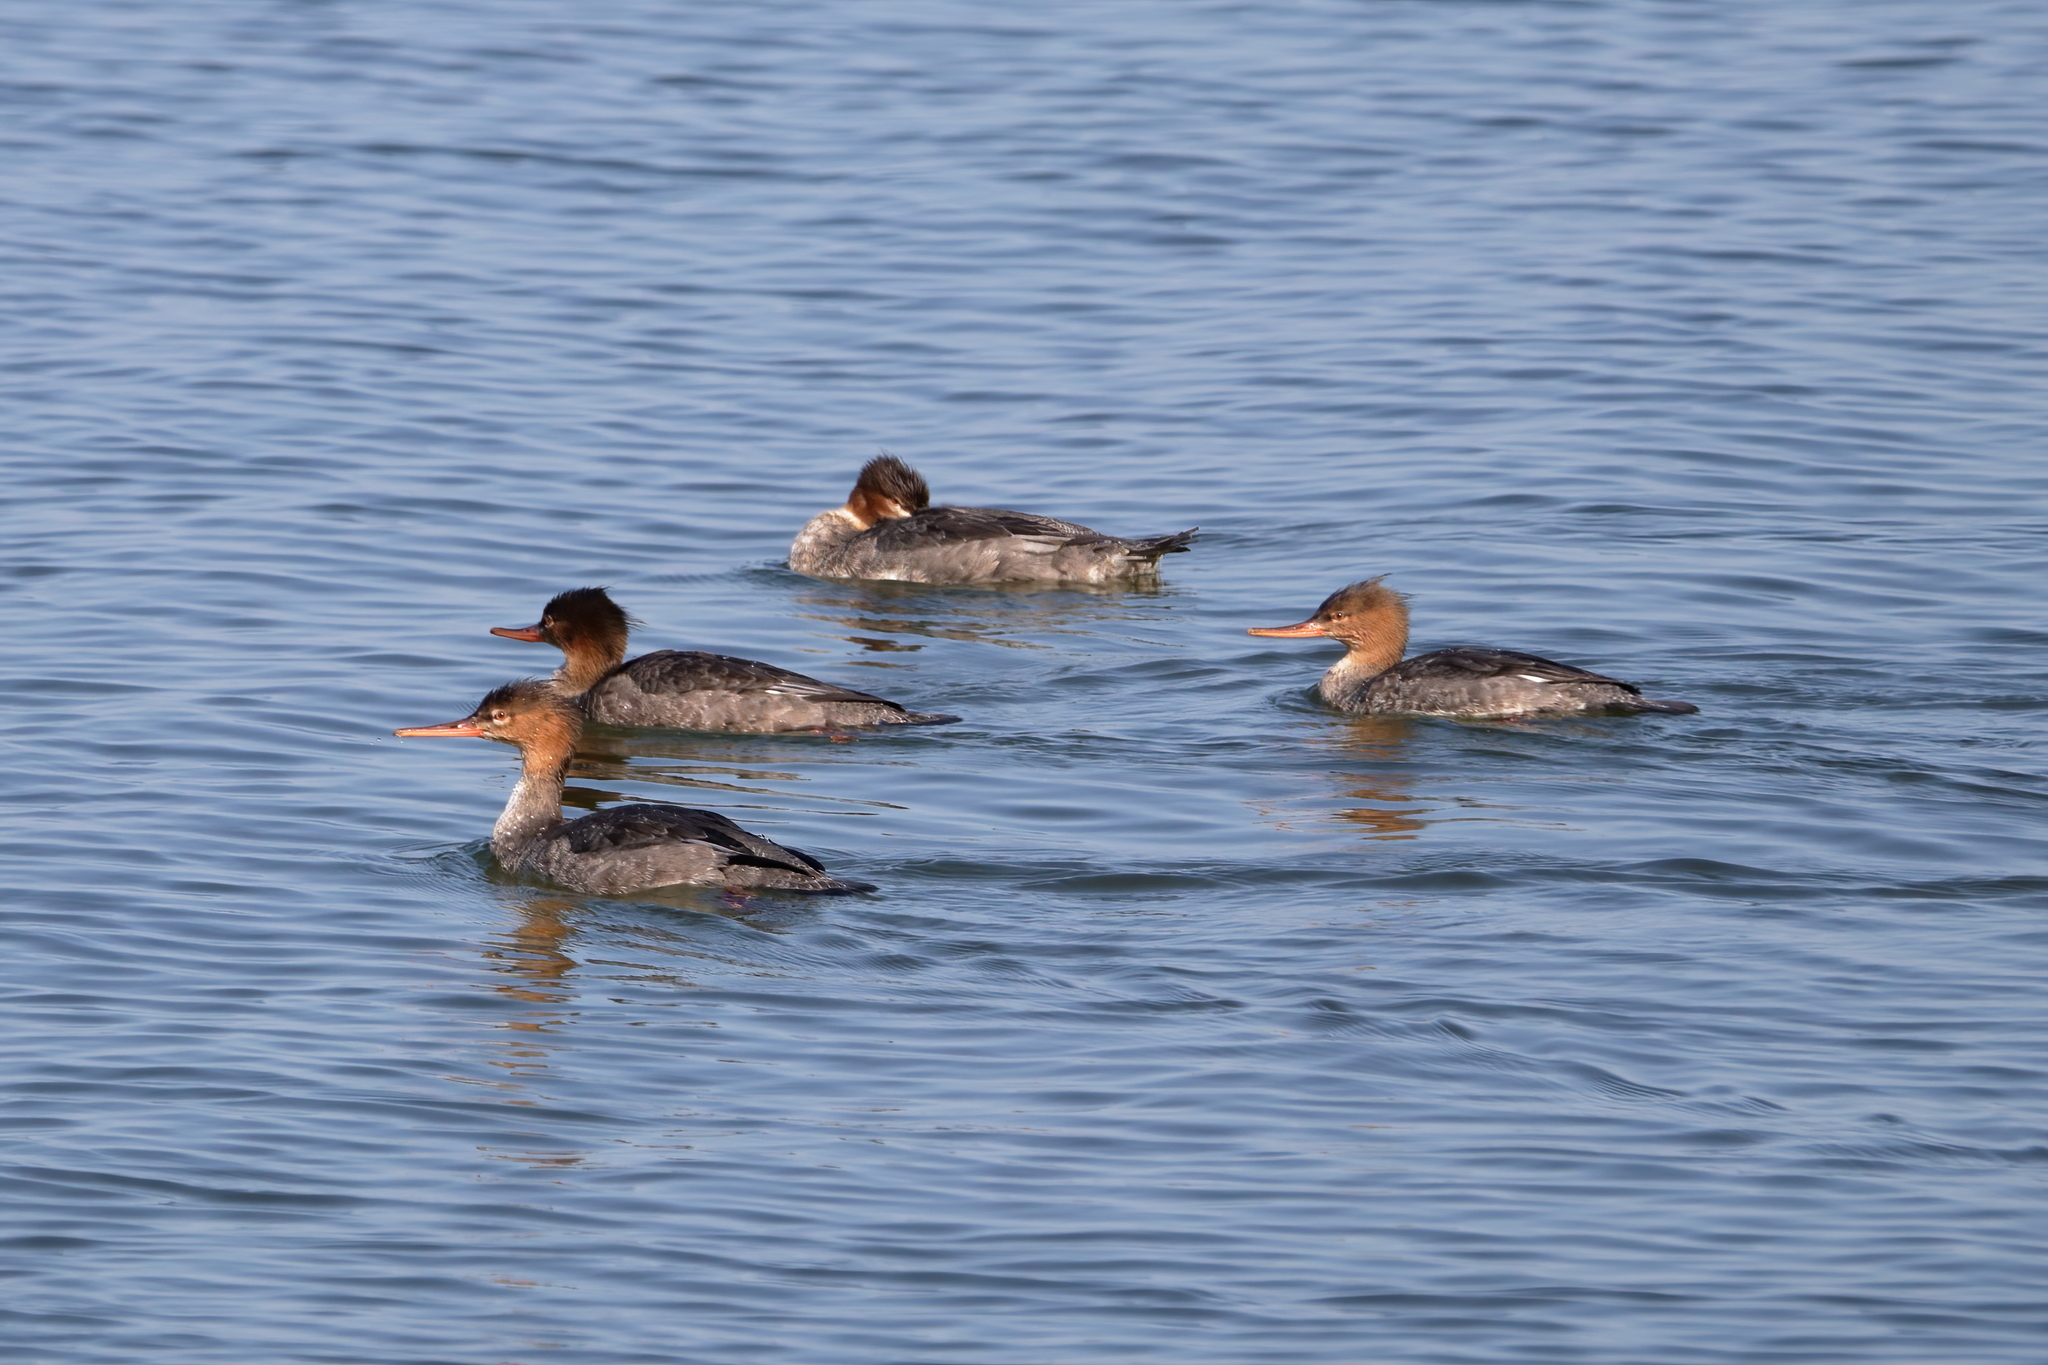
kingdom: Animalia
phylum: Chordata
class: Aves
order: Anseriformes
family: Anatidae
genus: Mergus
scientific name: Mergus serrator
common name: Red-breasted merganser
